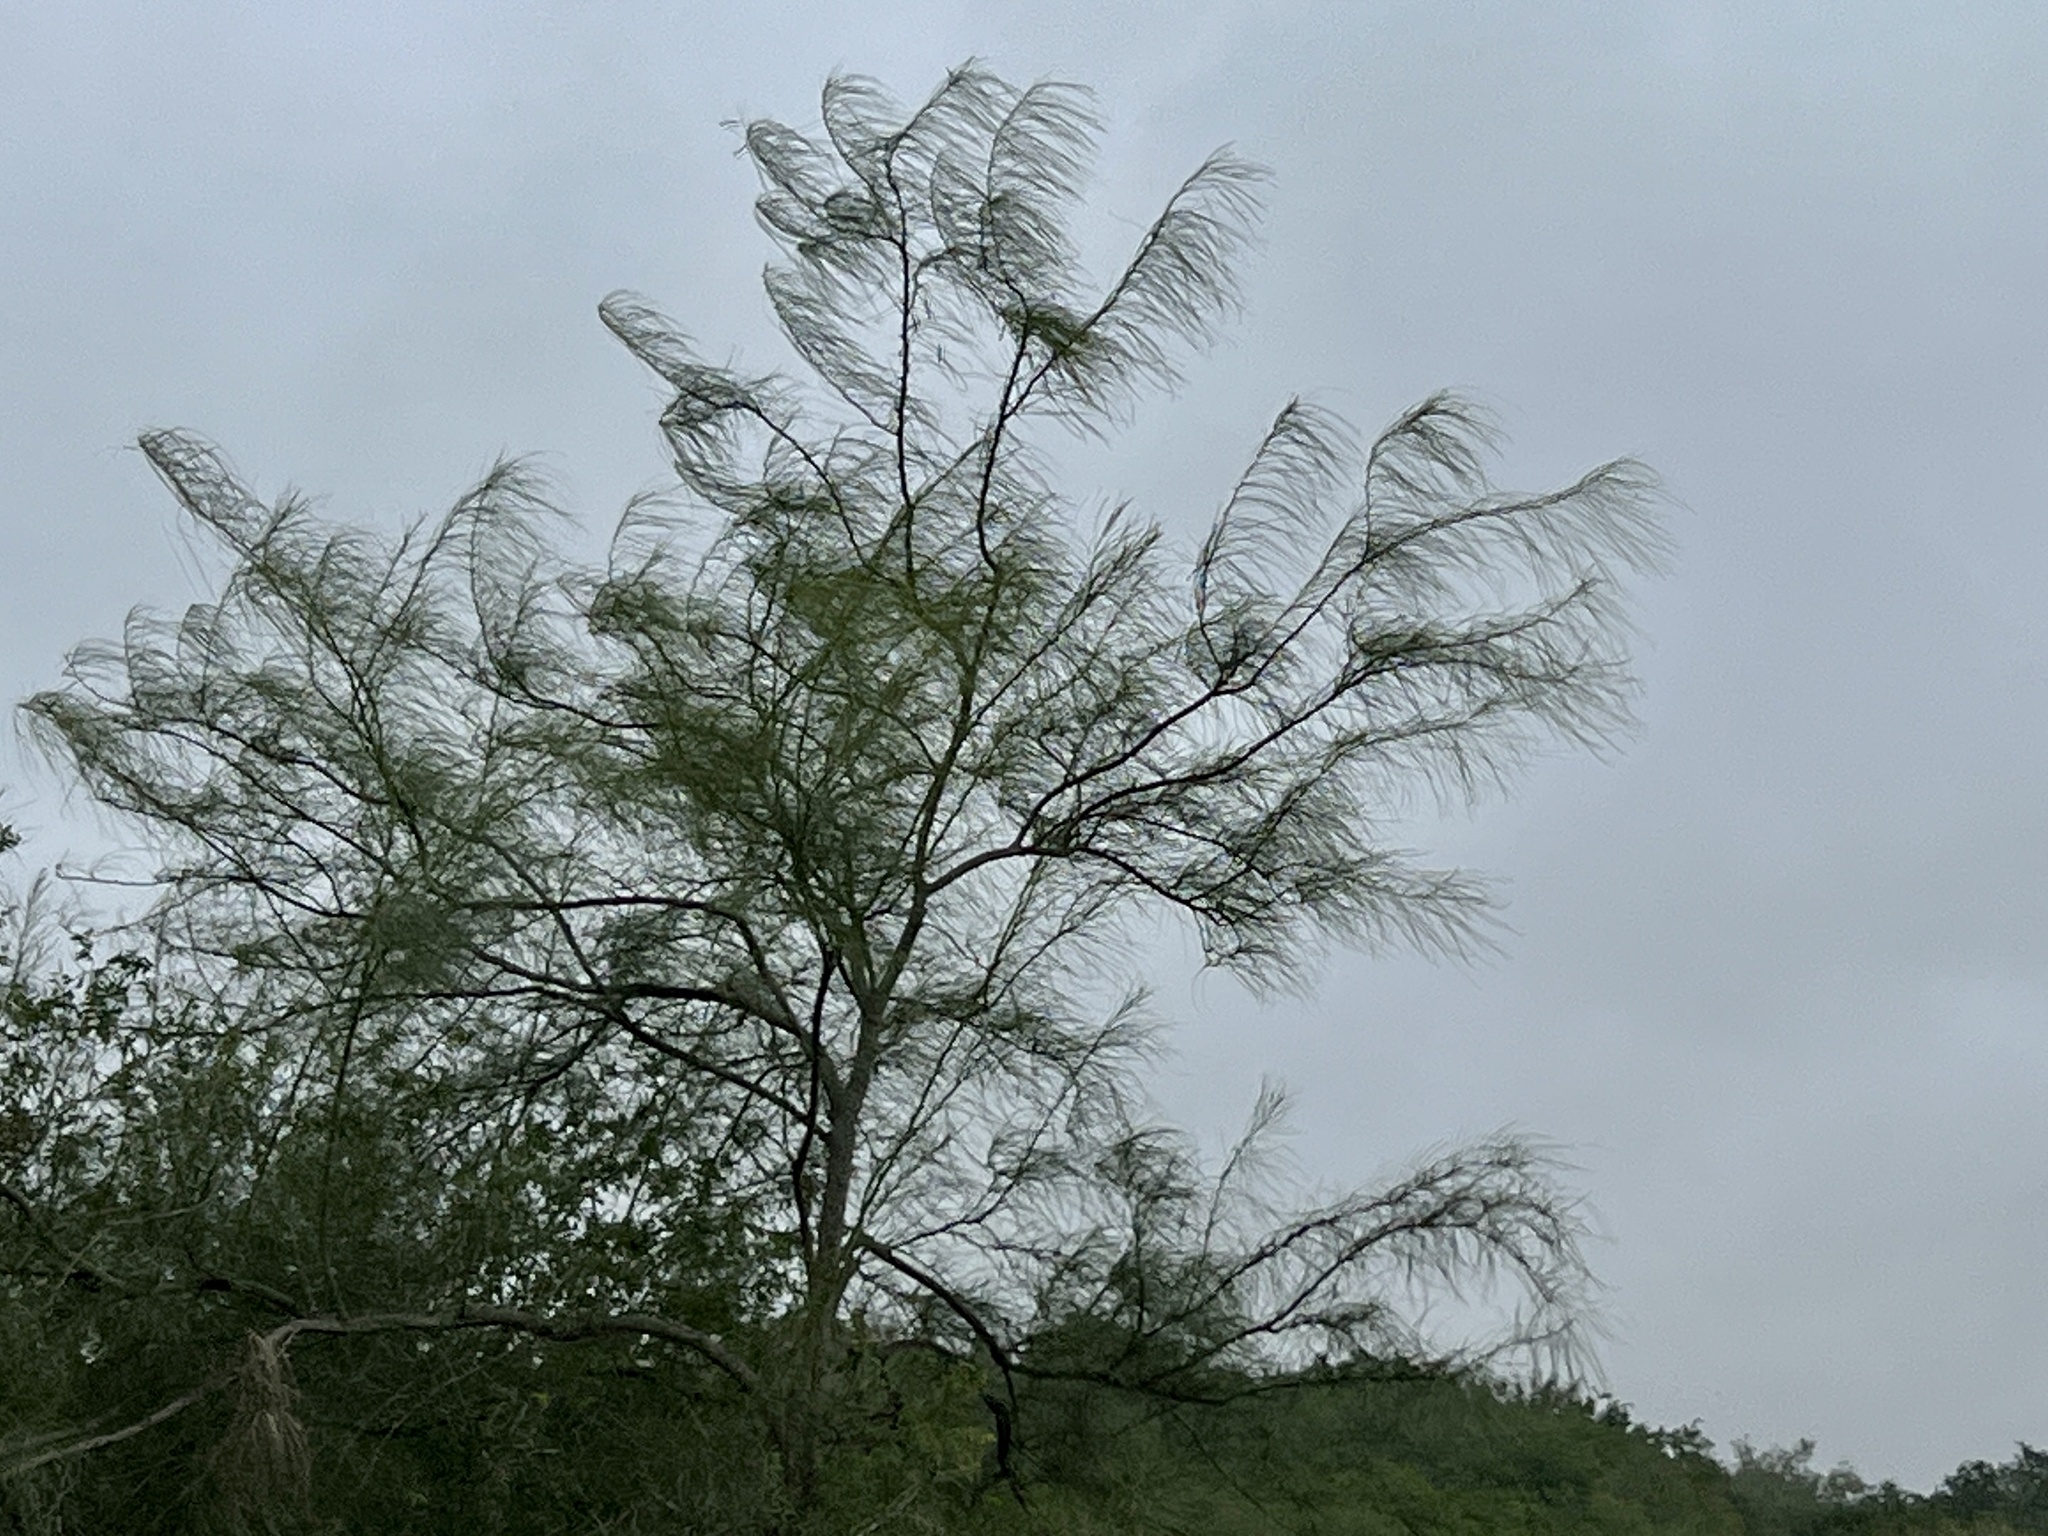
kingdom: Plantae
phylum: Tracheophyta
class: Magnoliopsida
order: Fabales
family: Fabaceae
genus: Parkinsonia
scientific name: Parkinsonia aculeata
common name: Jerusalem thorn
